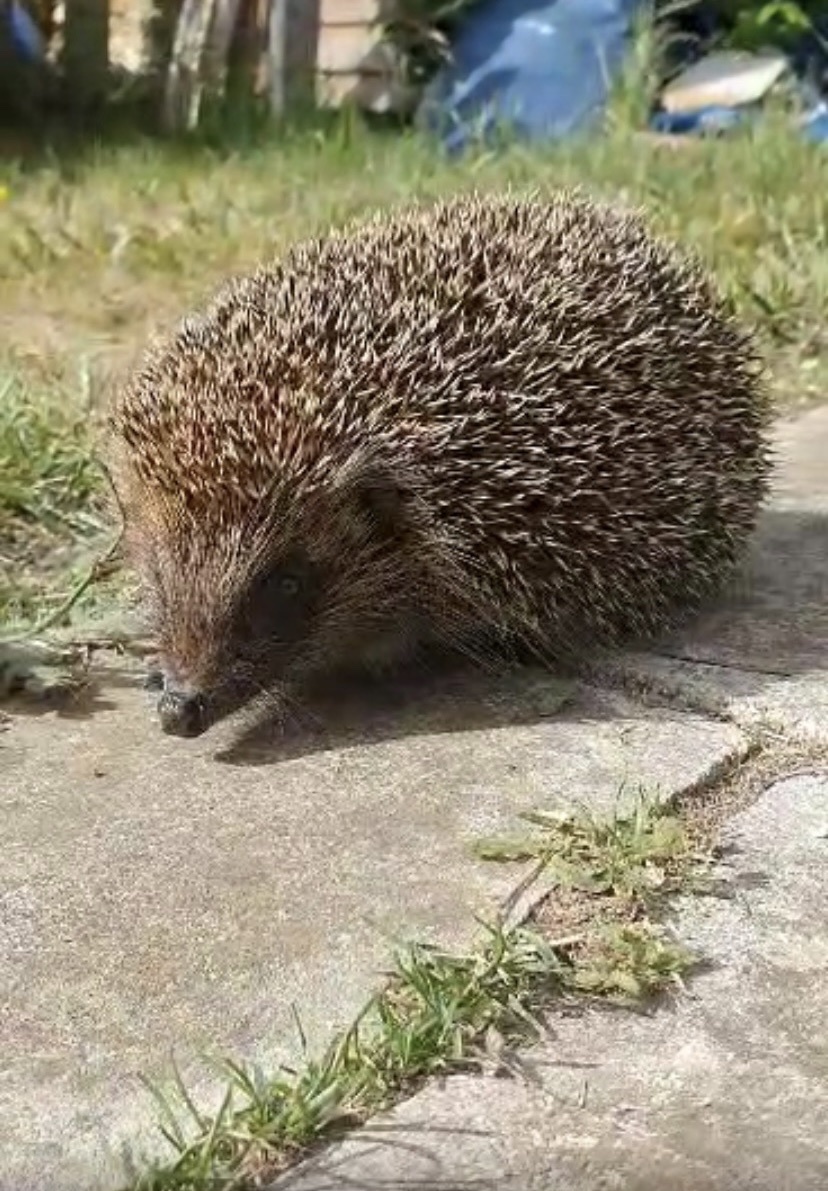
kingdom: Animalia
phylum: Chordata
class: Mammalia
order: Erinaceomorpha
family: Erinaceidae
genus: Erinaceus
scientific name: Erinaceus europaeus
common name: West european hedgehog
